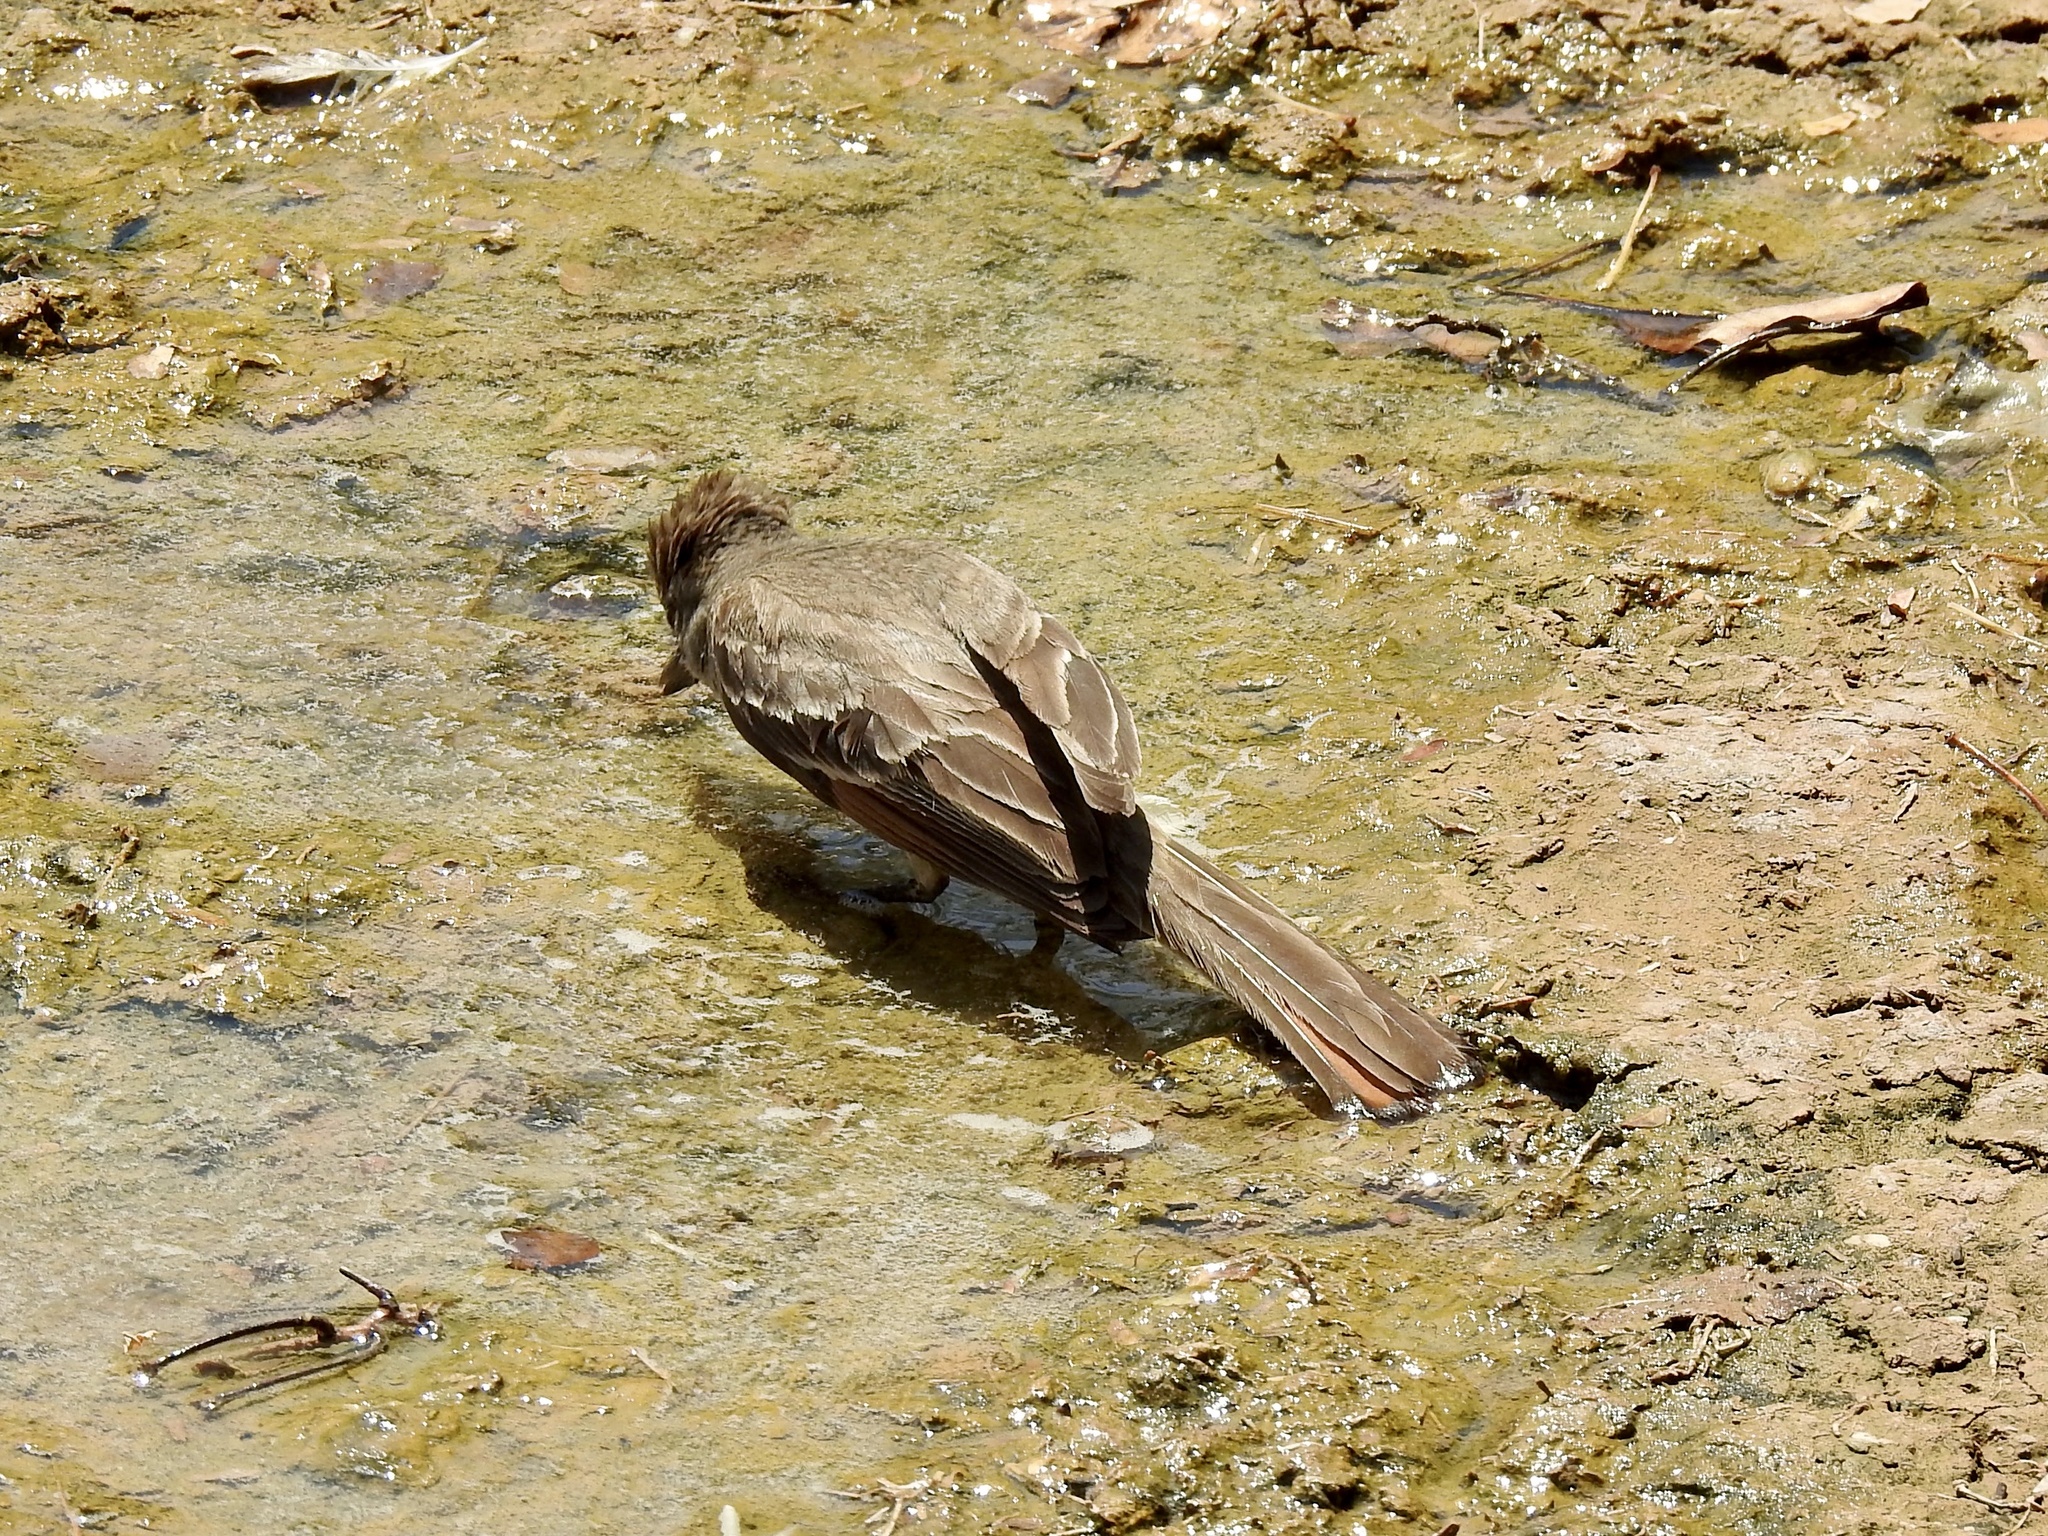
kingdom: Animalia
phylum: Chordata
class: Aves
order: Passeriformes
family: Tyrannidae
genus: Myiarchus
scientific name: Myiarchus cinerascens
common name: Ash-throated flycatcher
